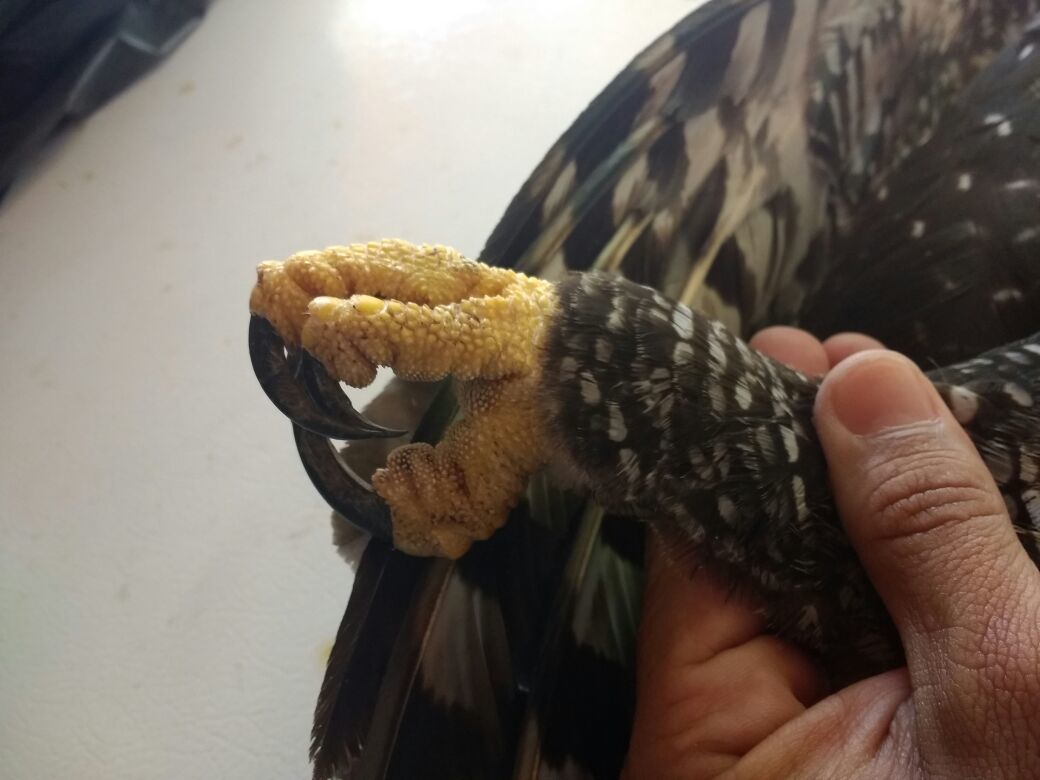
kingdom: Animalia
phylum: Chordata
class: Aves
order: Accipitriformes
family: Accipitridae
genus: Spizaetus
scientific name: Spizaetus tyrannus
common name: Black hawk-eagle
